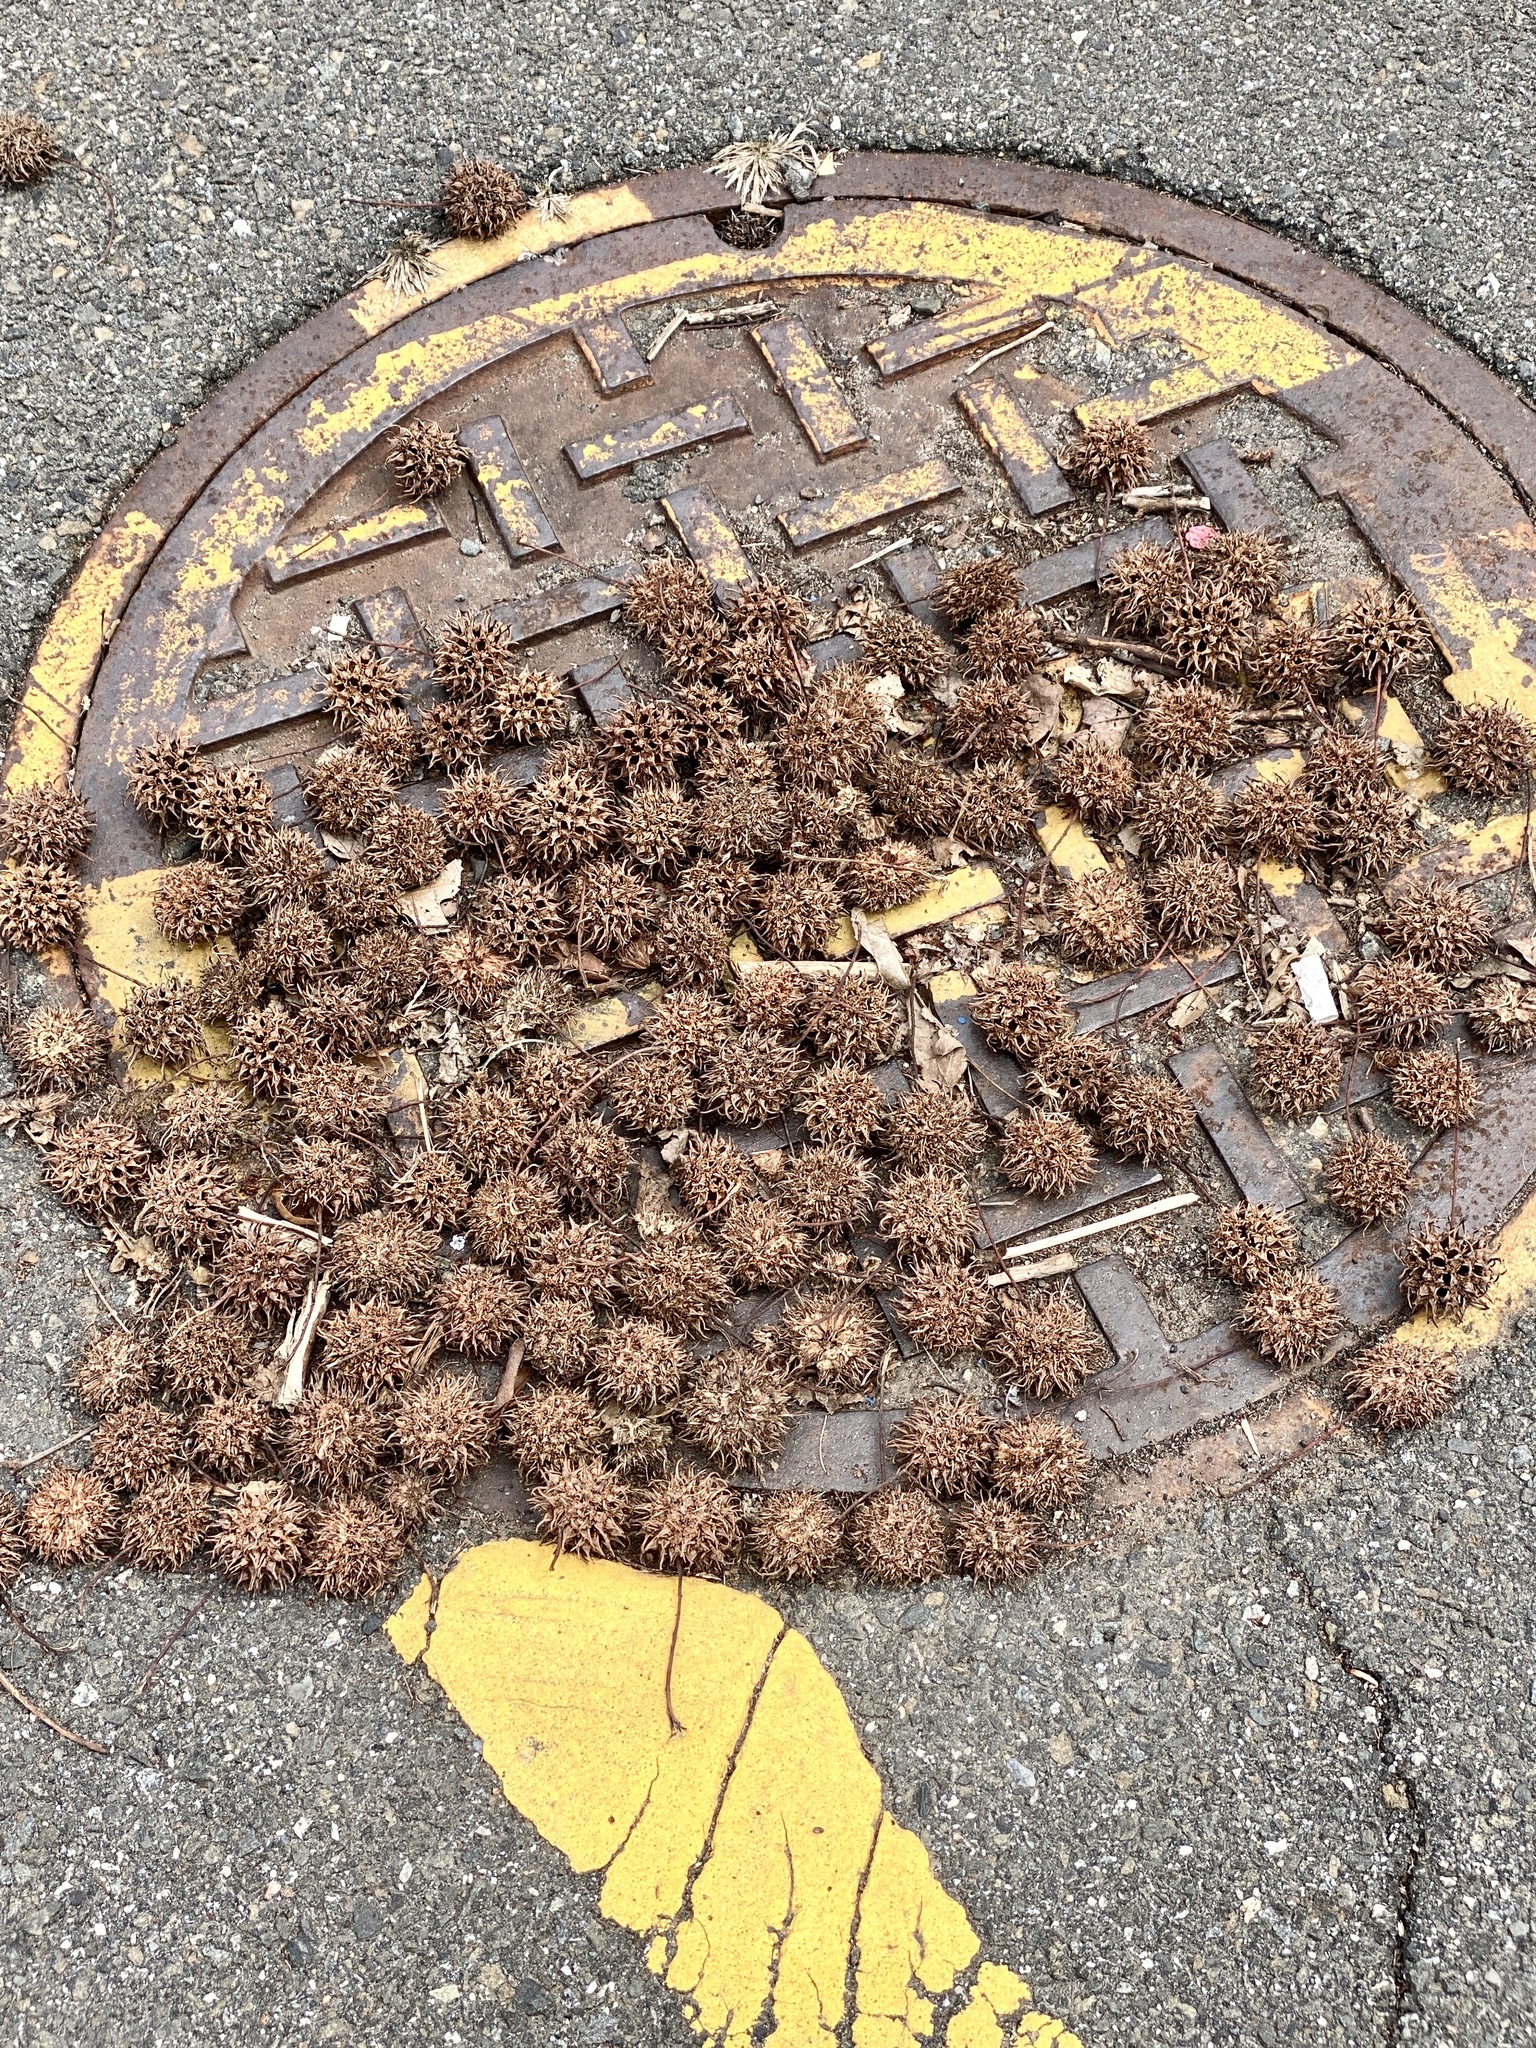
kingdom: Plantae
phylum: Tracheophyta
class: Magnoliopsida
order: Saxifragales
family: Altingiaceae
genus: Liquidambar
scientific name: Liquidambar styraciflua
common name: Sweet gum
